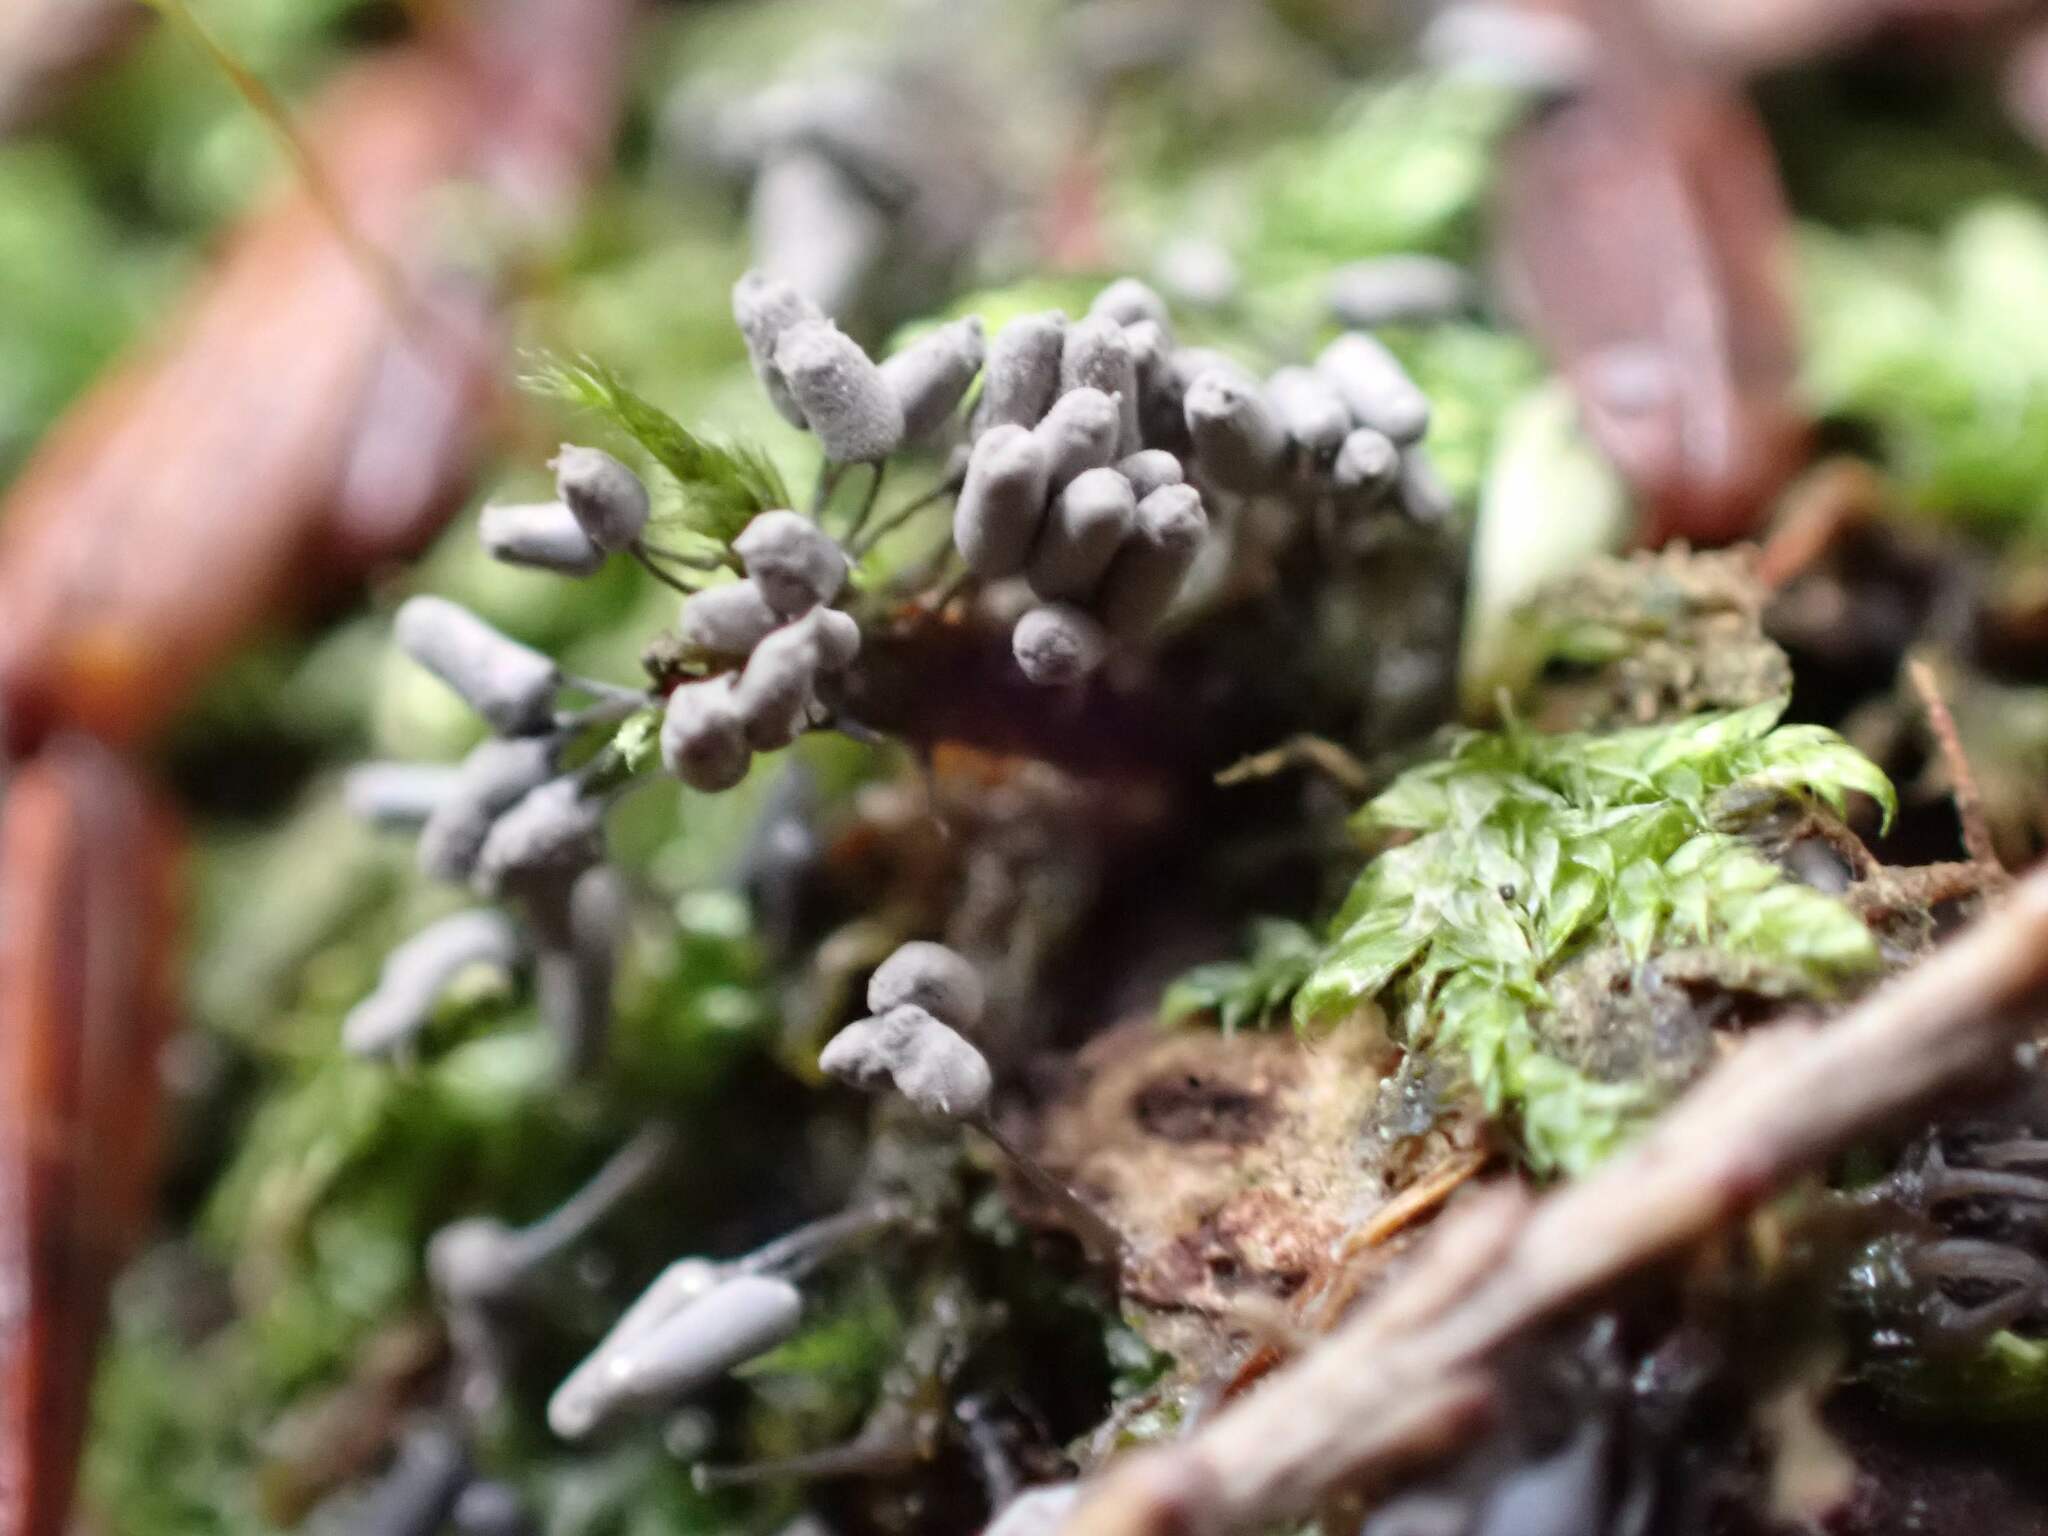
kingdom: Protozoa
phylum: Mycetozoa
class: Myxomycetes
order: Trichiales
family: Arcyriaceae
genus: Arcyria
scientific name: Arcyria cinerea
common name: White carnival candy slime mold
